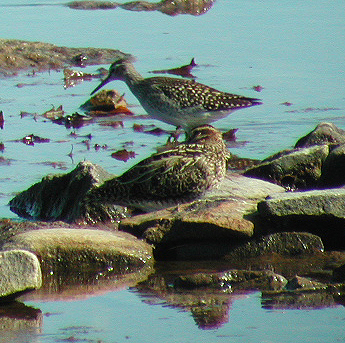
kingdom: Animalia
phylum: Chordata
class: Aves
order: Charadriiformes
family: Scolopacidae
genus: Gallinago
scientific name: Gallinago gallinago
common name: Common snipe
